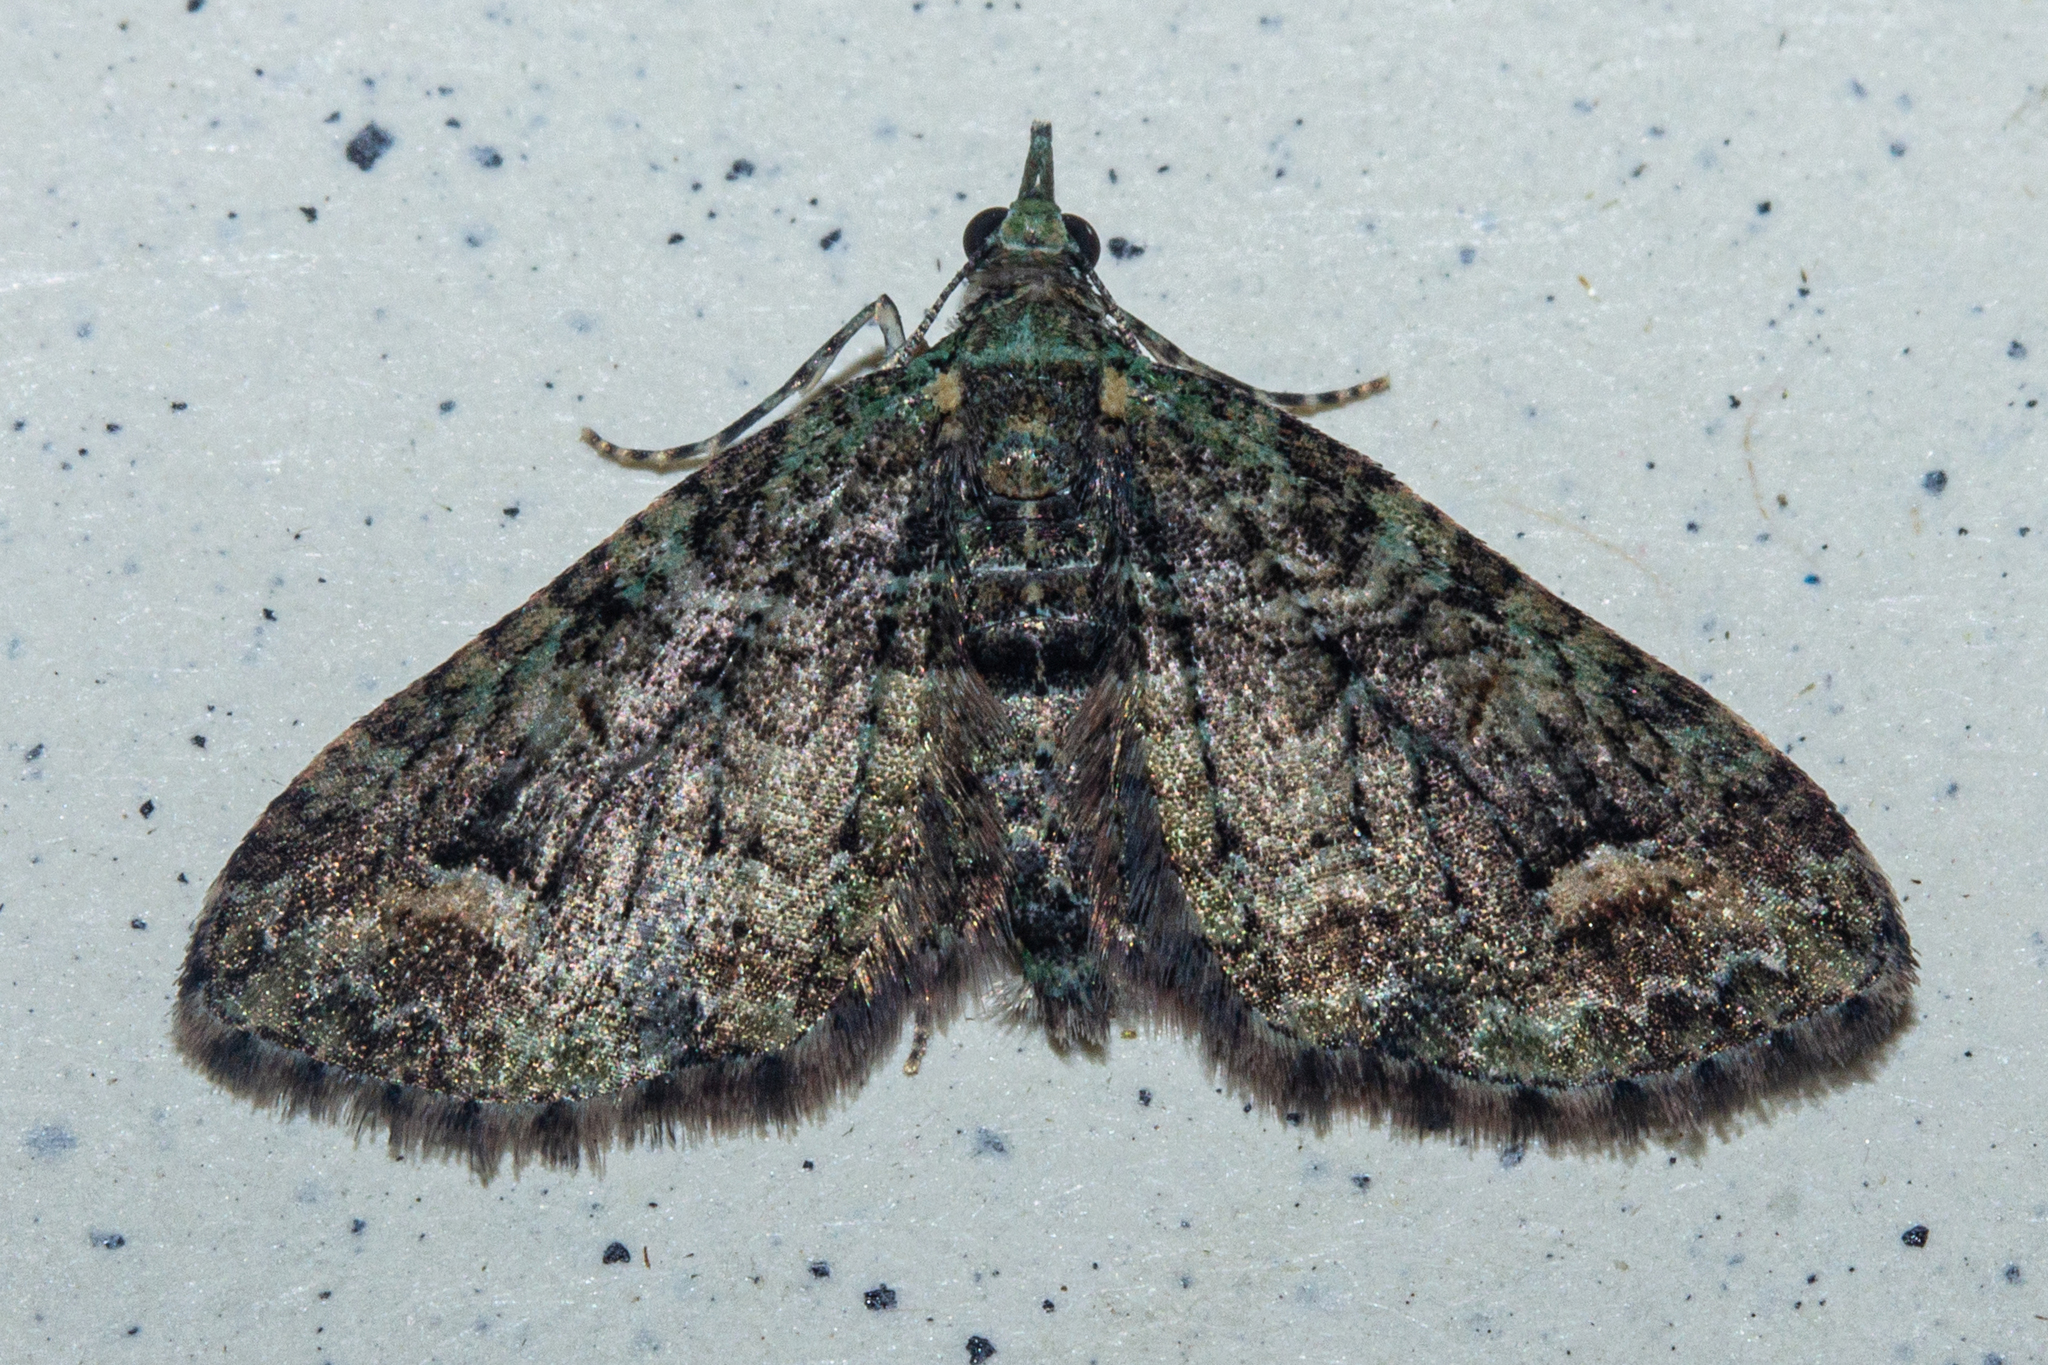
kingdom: Animalia
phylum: Arthropoda
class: Insecta
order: Lepidoptera
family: Geometridae
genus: Idaea
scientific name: Idaea mutanda
